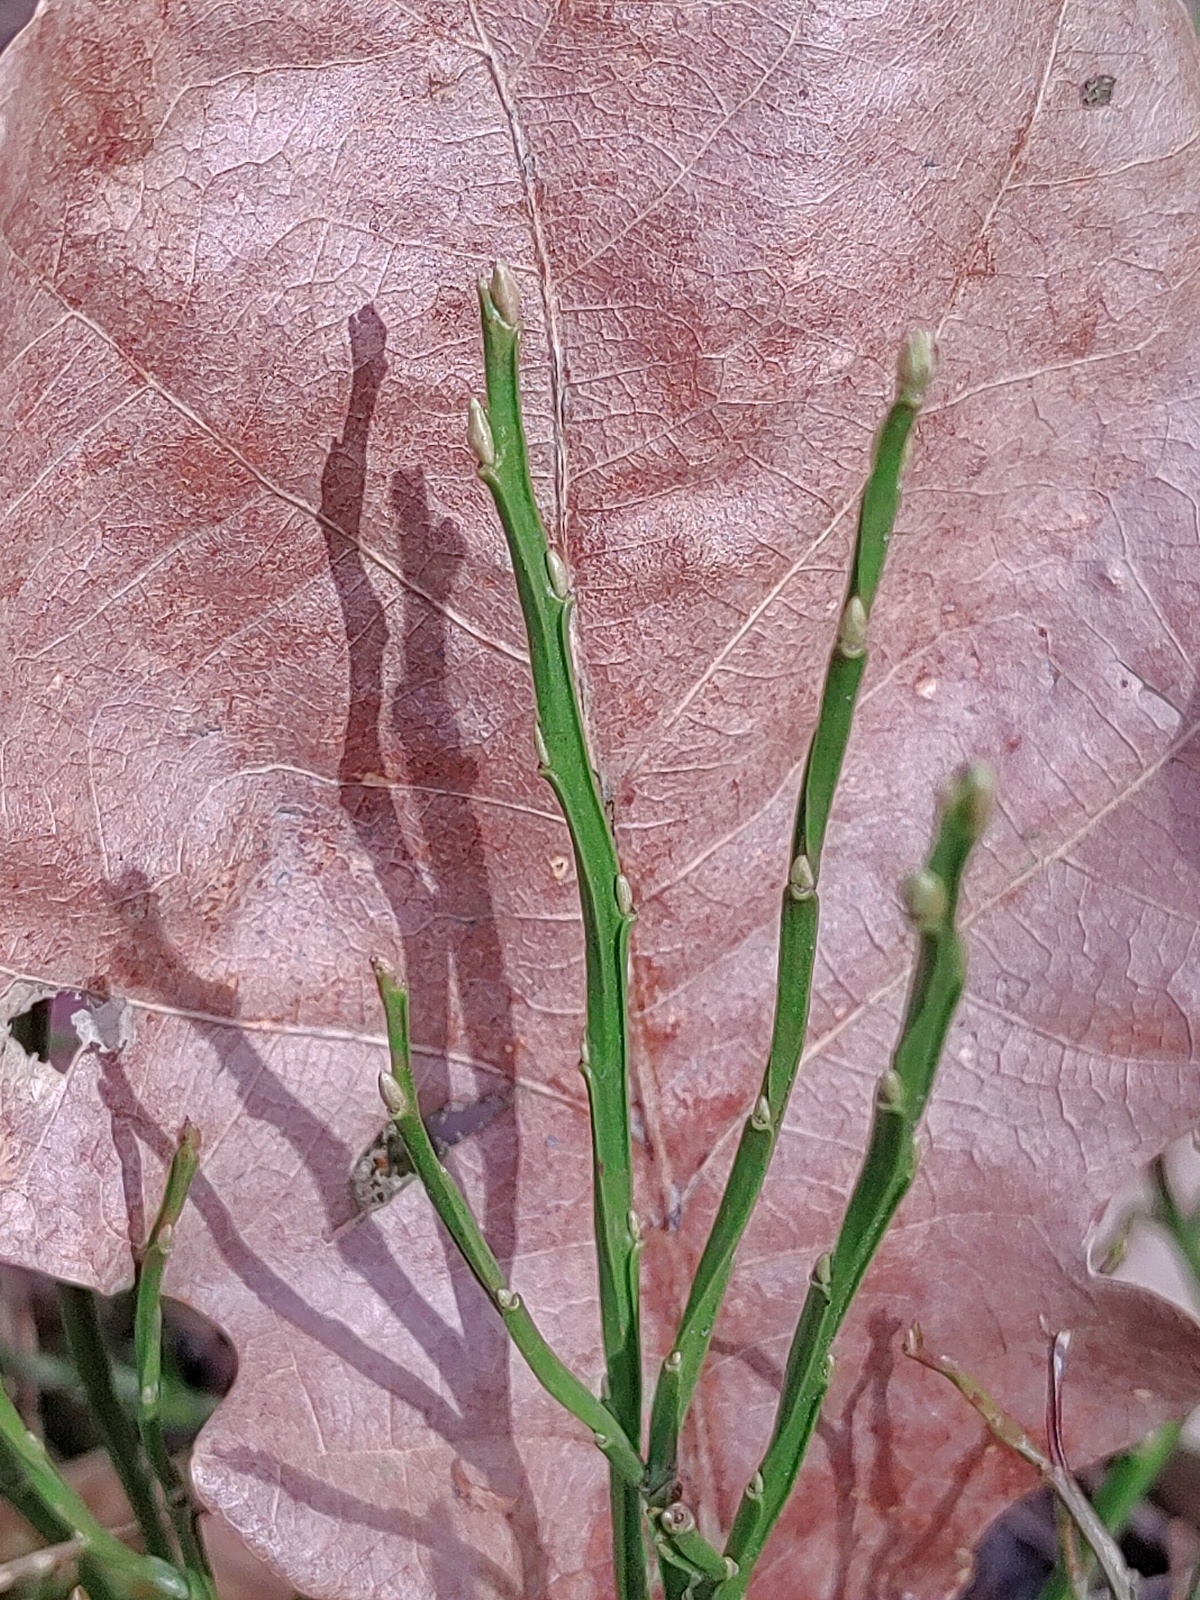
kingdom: Plantae
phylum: Tracheophyta
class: Magnoliopsida
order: Ericales
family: Ericaceae
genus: Vaccinium
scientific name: Vaccinium myrtillus
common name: Bilberry
